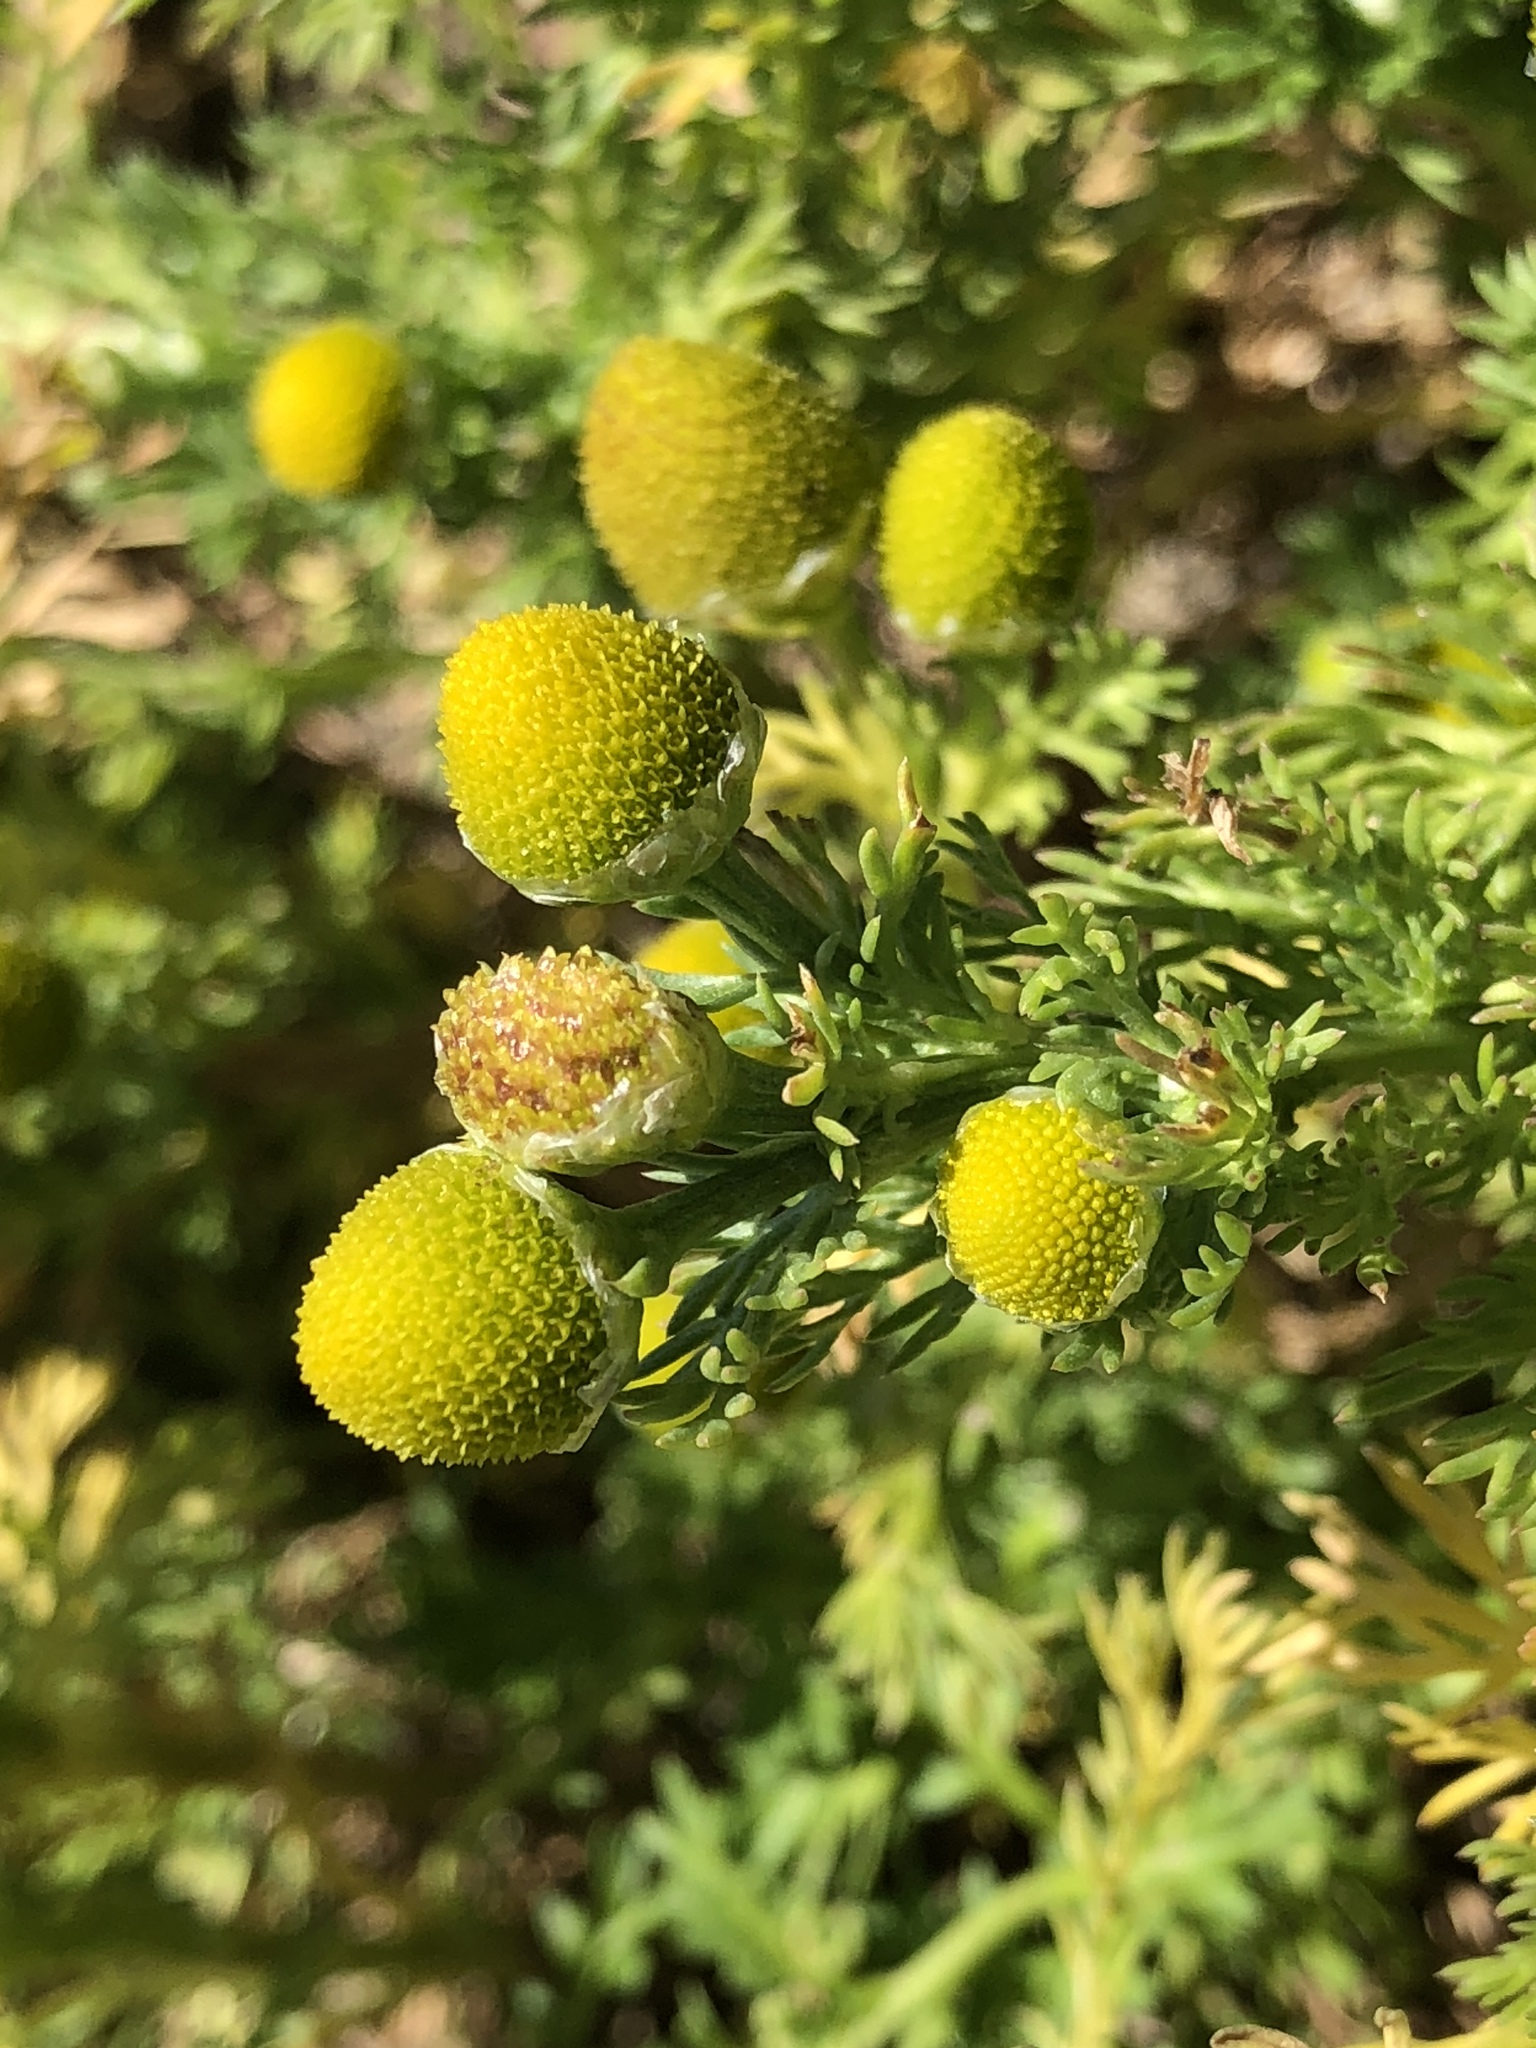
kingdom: Plantae
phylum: Tracheophyta
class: Magnoliopsida
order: Asterales
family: Asteraceae
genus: Matricaria
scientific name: Matricaria discoidea
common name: Disc mayweed
